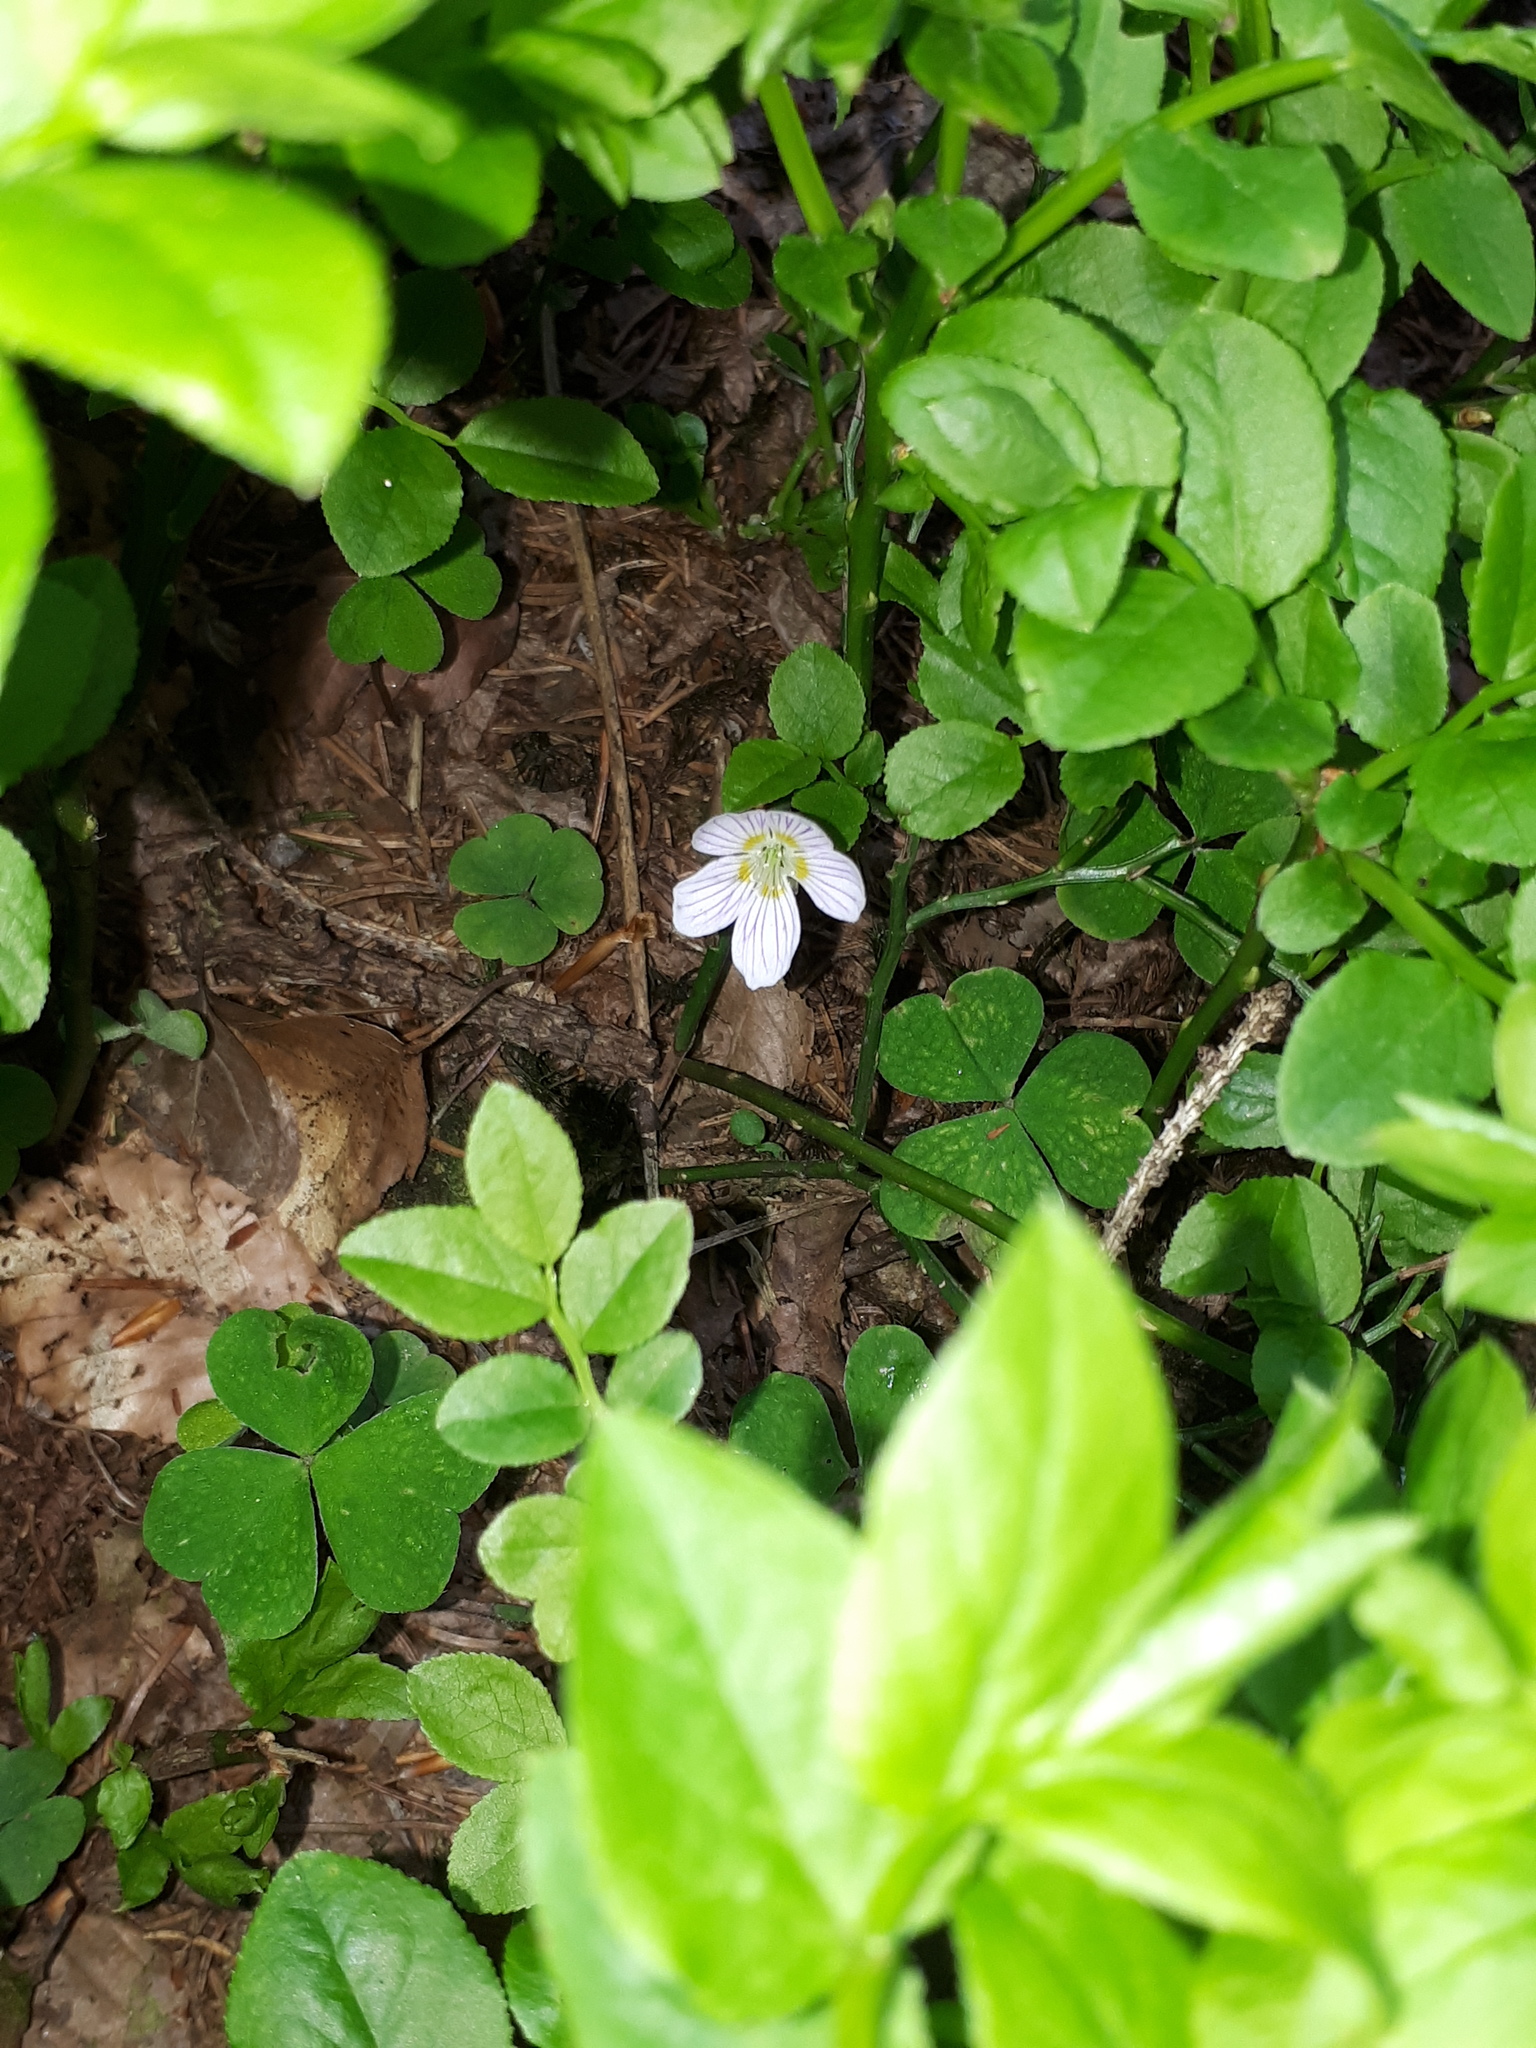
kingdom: Plantae
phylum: Tracheophyta
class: Magnoliopsida
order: Oxalidales
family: Oxalidaceae
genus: Oxalis
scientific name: Oxalis acetosella
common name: Wood-sorrel
